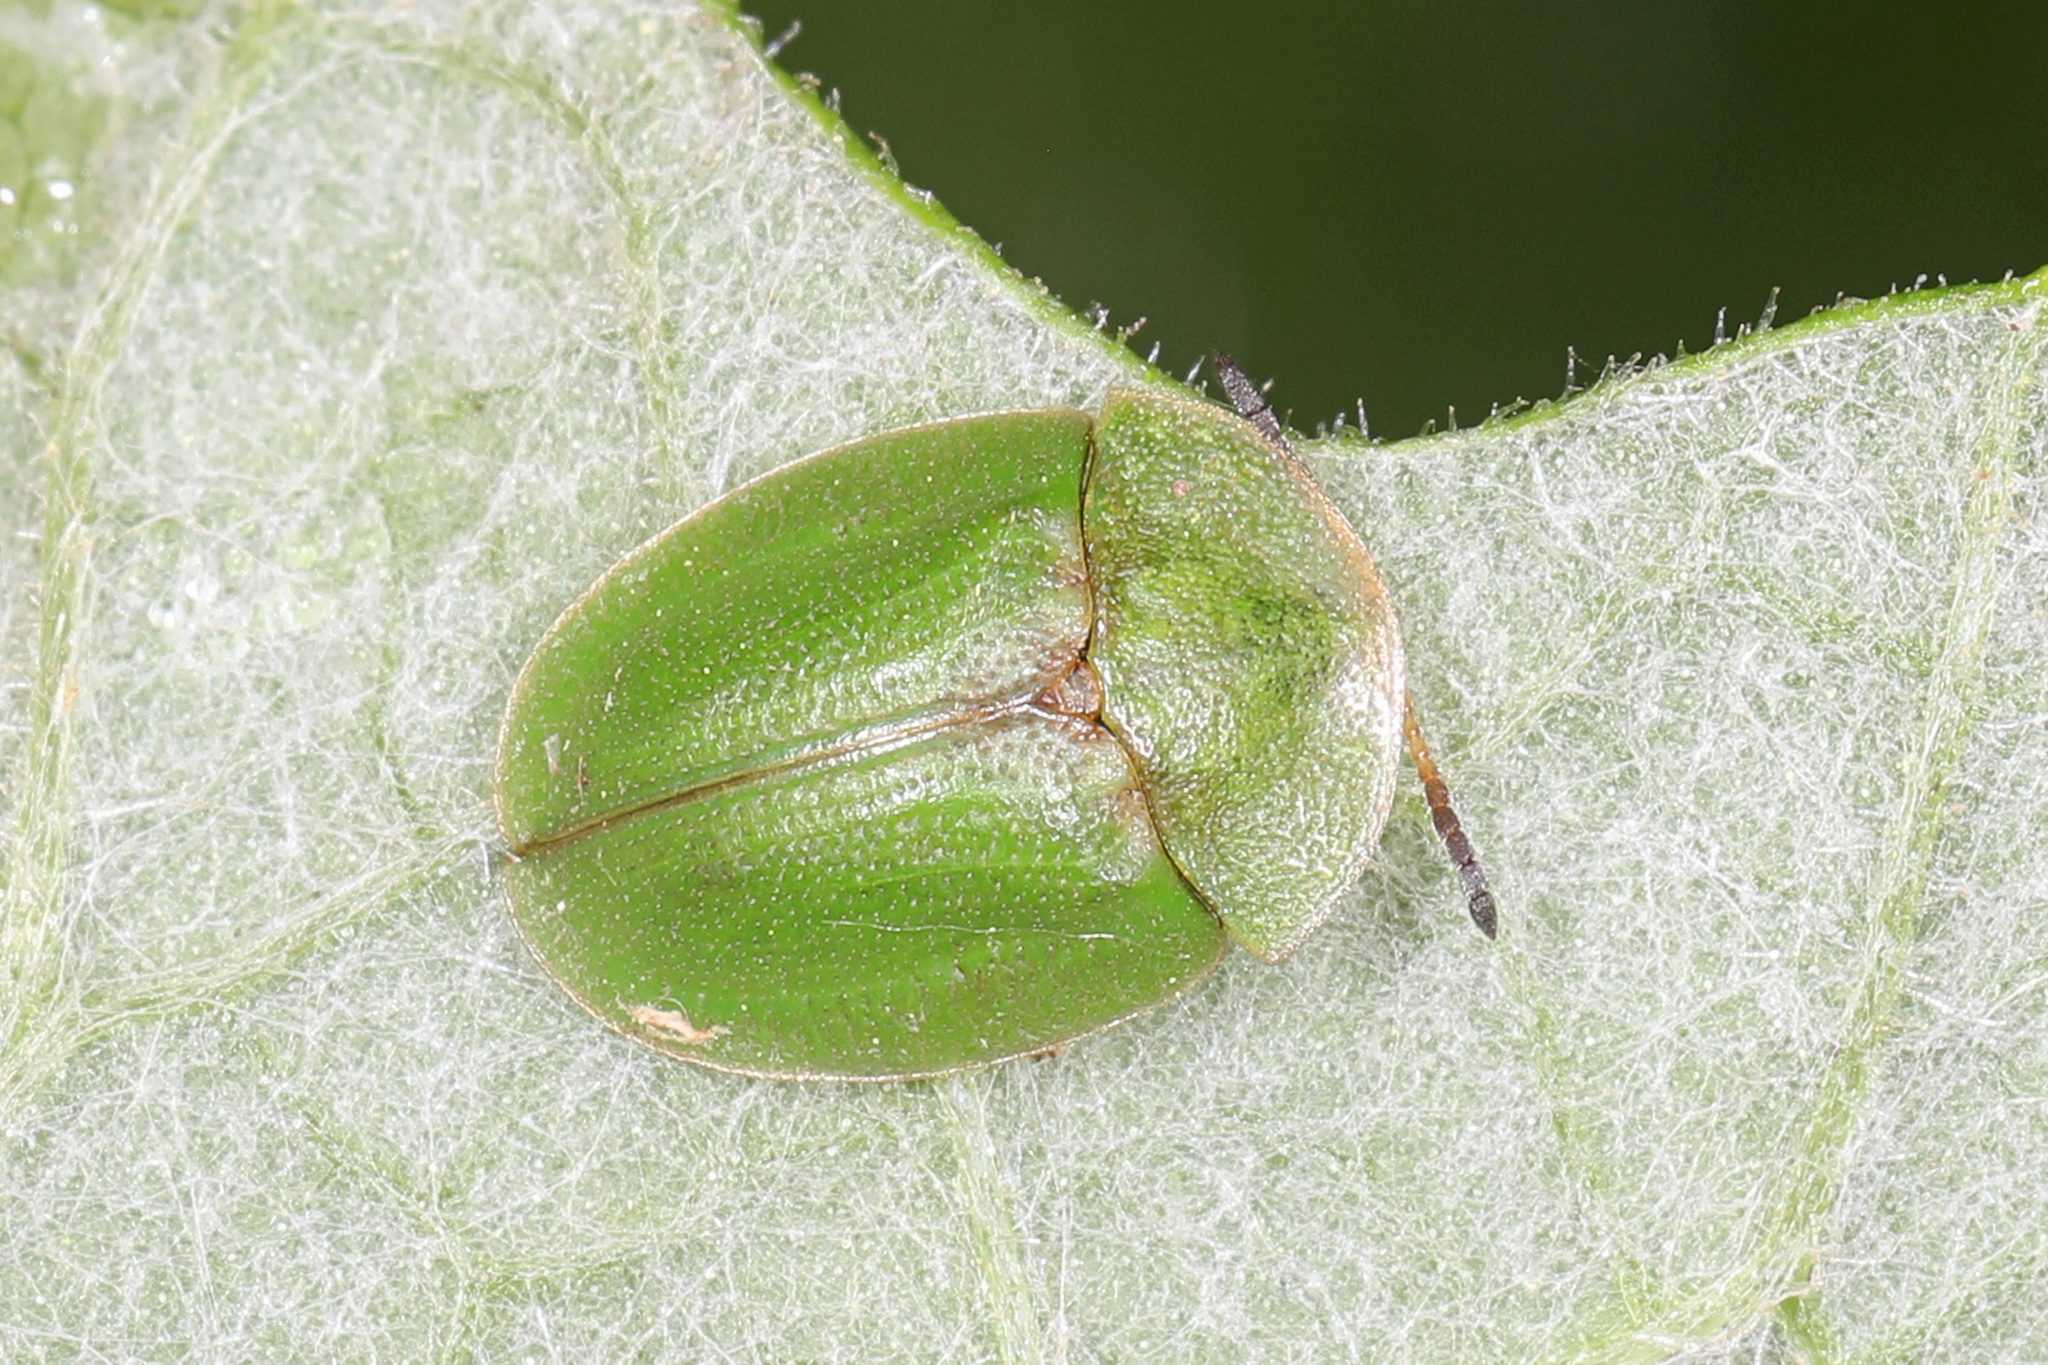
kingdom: Animalia
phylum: Arthropoda
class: Insecta
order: Coleoptera
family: Chrysomelidae
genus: Cassida
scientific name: Cassida rubiginosa
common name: Thistle tortoise beetle
